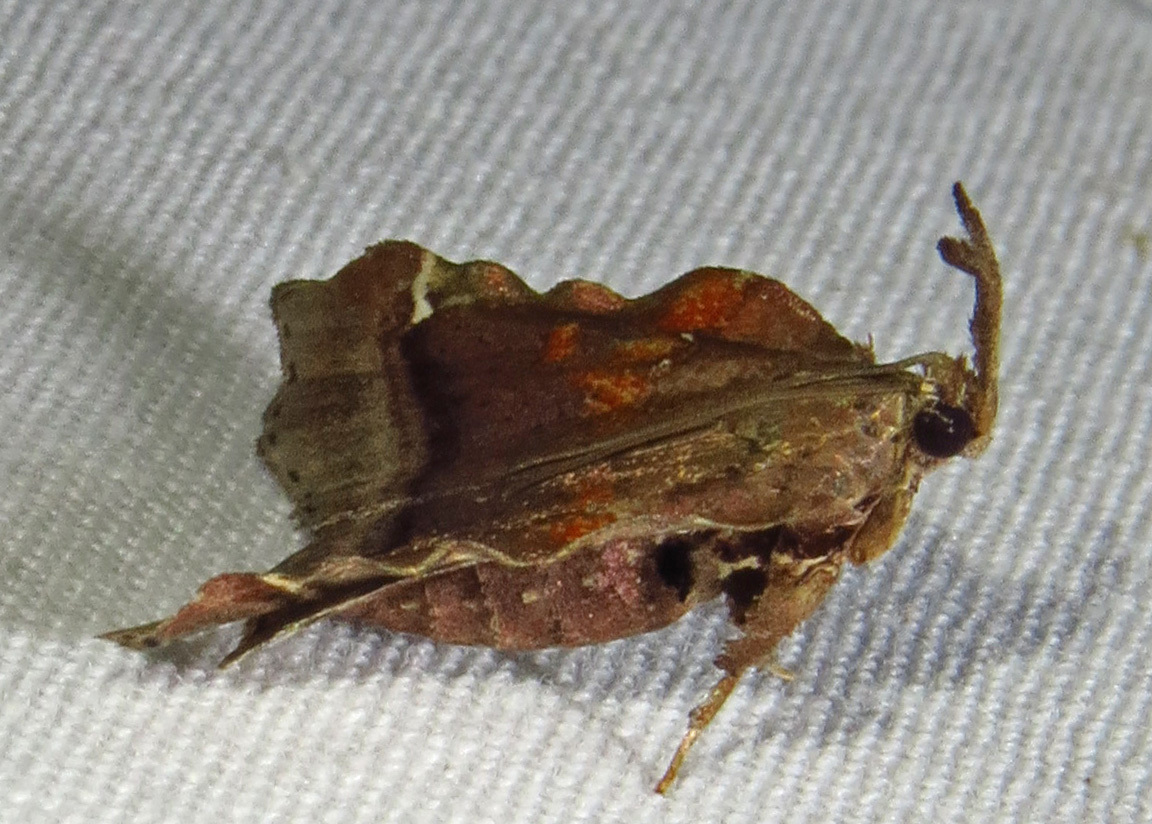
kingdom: Animalia
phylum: Arthropoda
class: Insecta
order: Lepidoptera
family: Pyralidae
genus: Clydonopteron
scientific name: Clydonopteron sacculana
